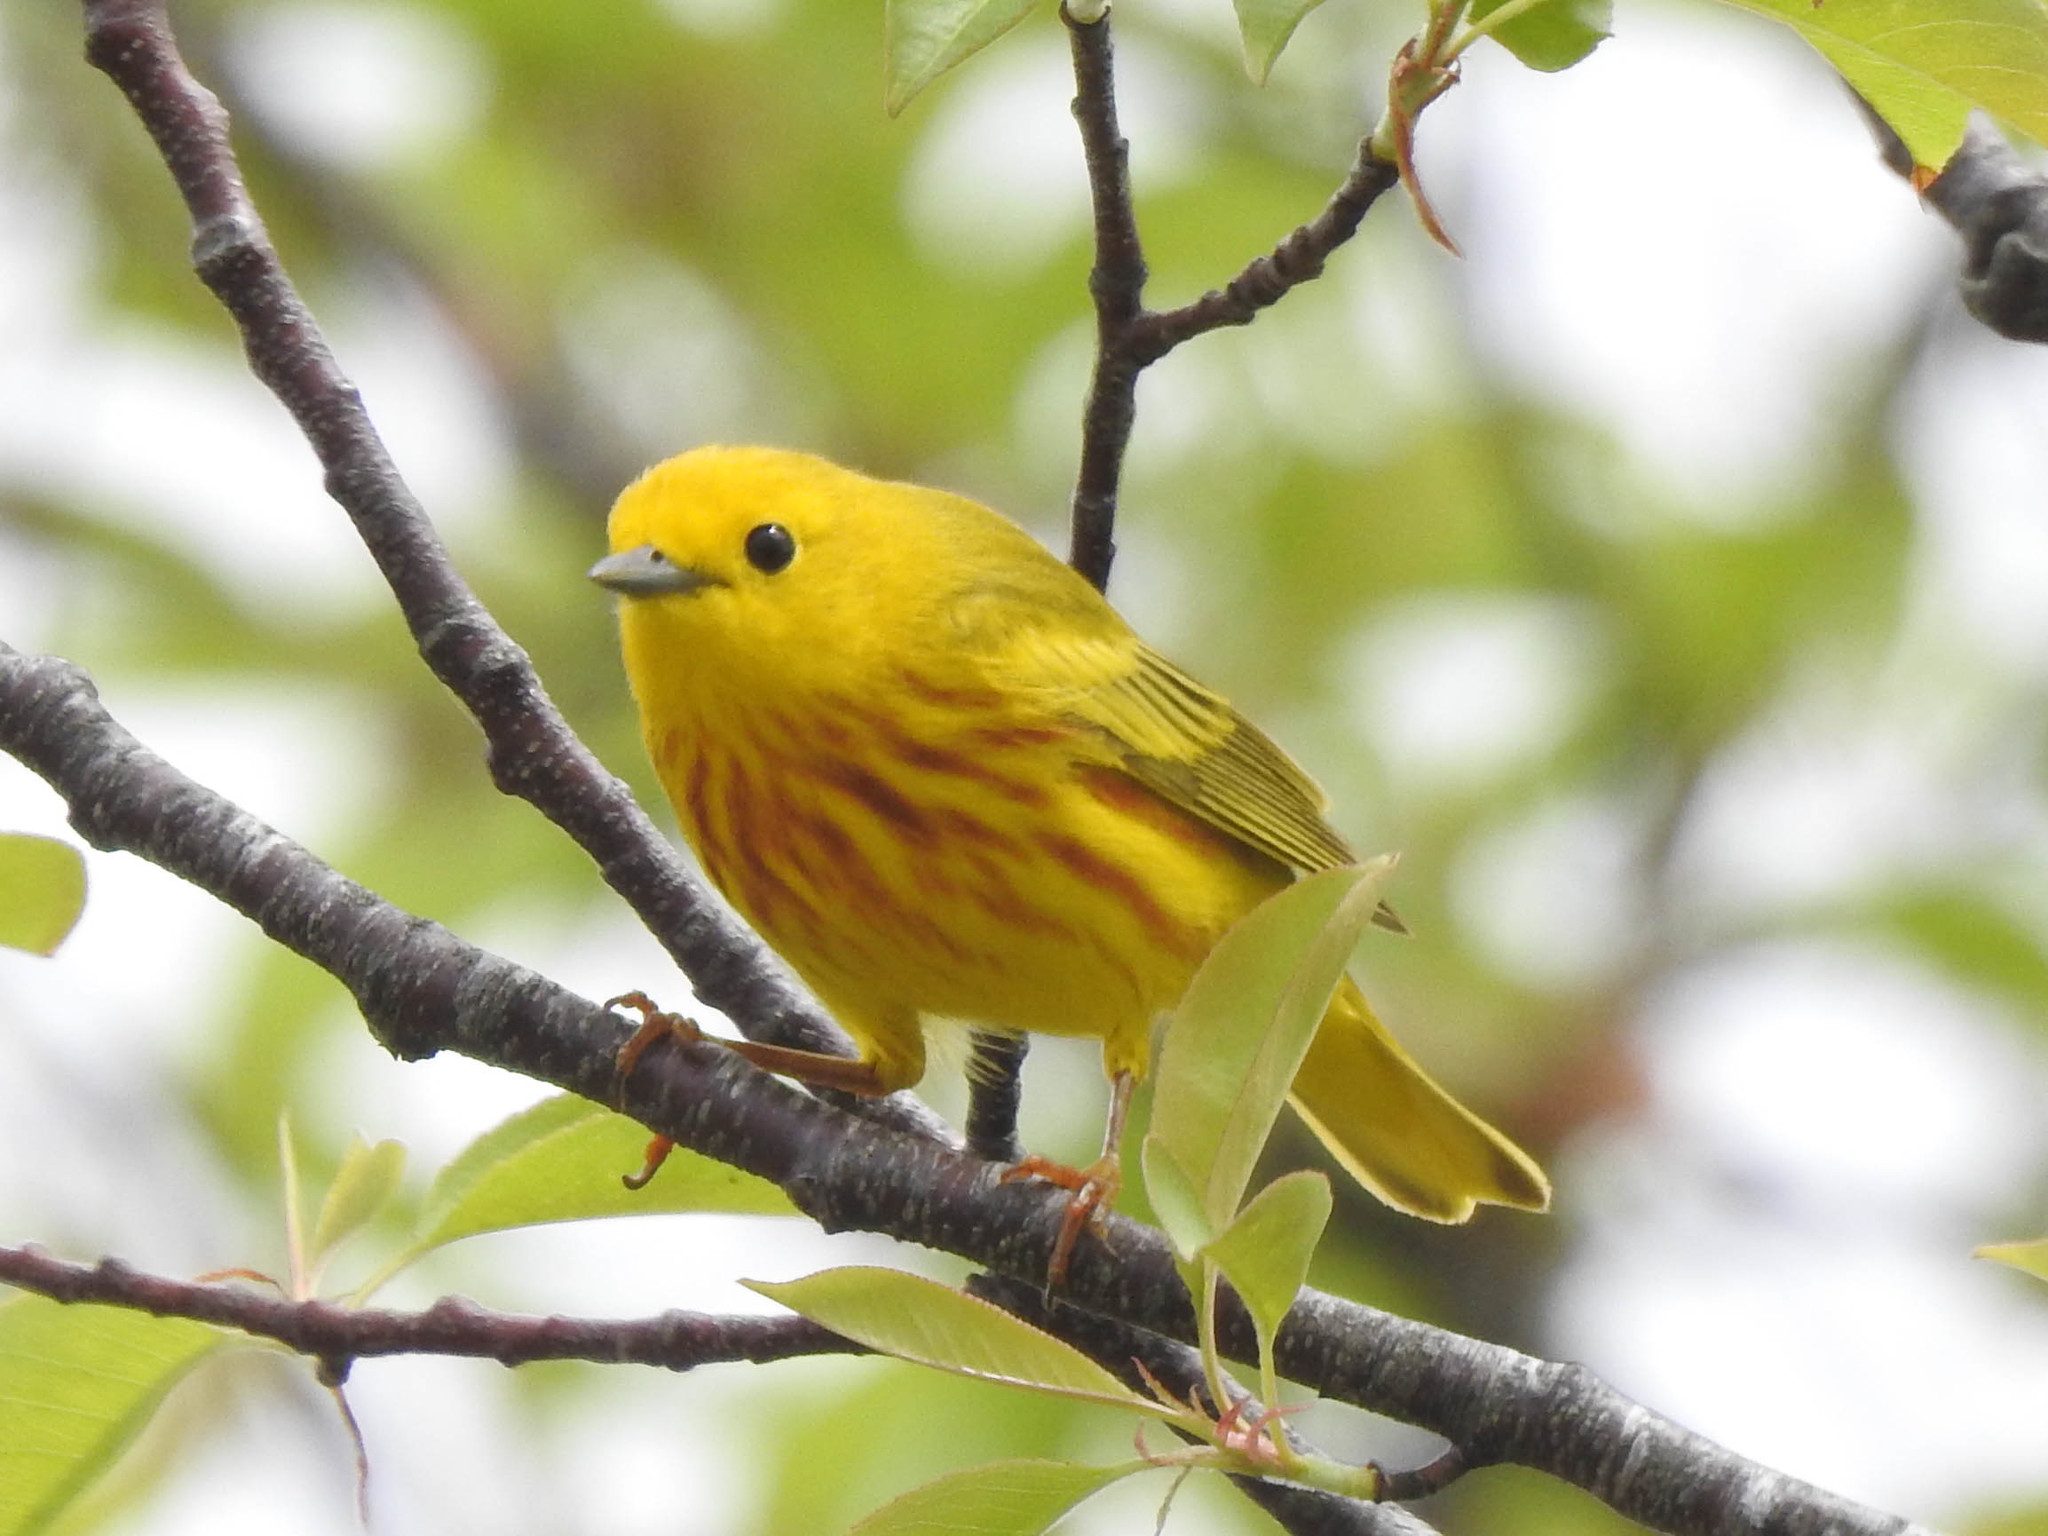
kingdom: Animalia
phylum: Chordata
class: Aves
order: Passeriformes
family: Parulidae
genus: Setophaga
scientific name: Setophaga petechia
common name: Yellow warbler
